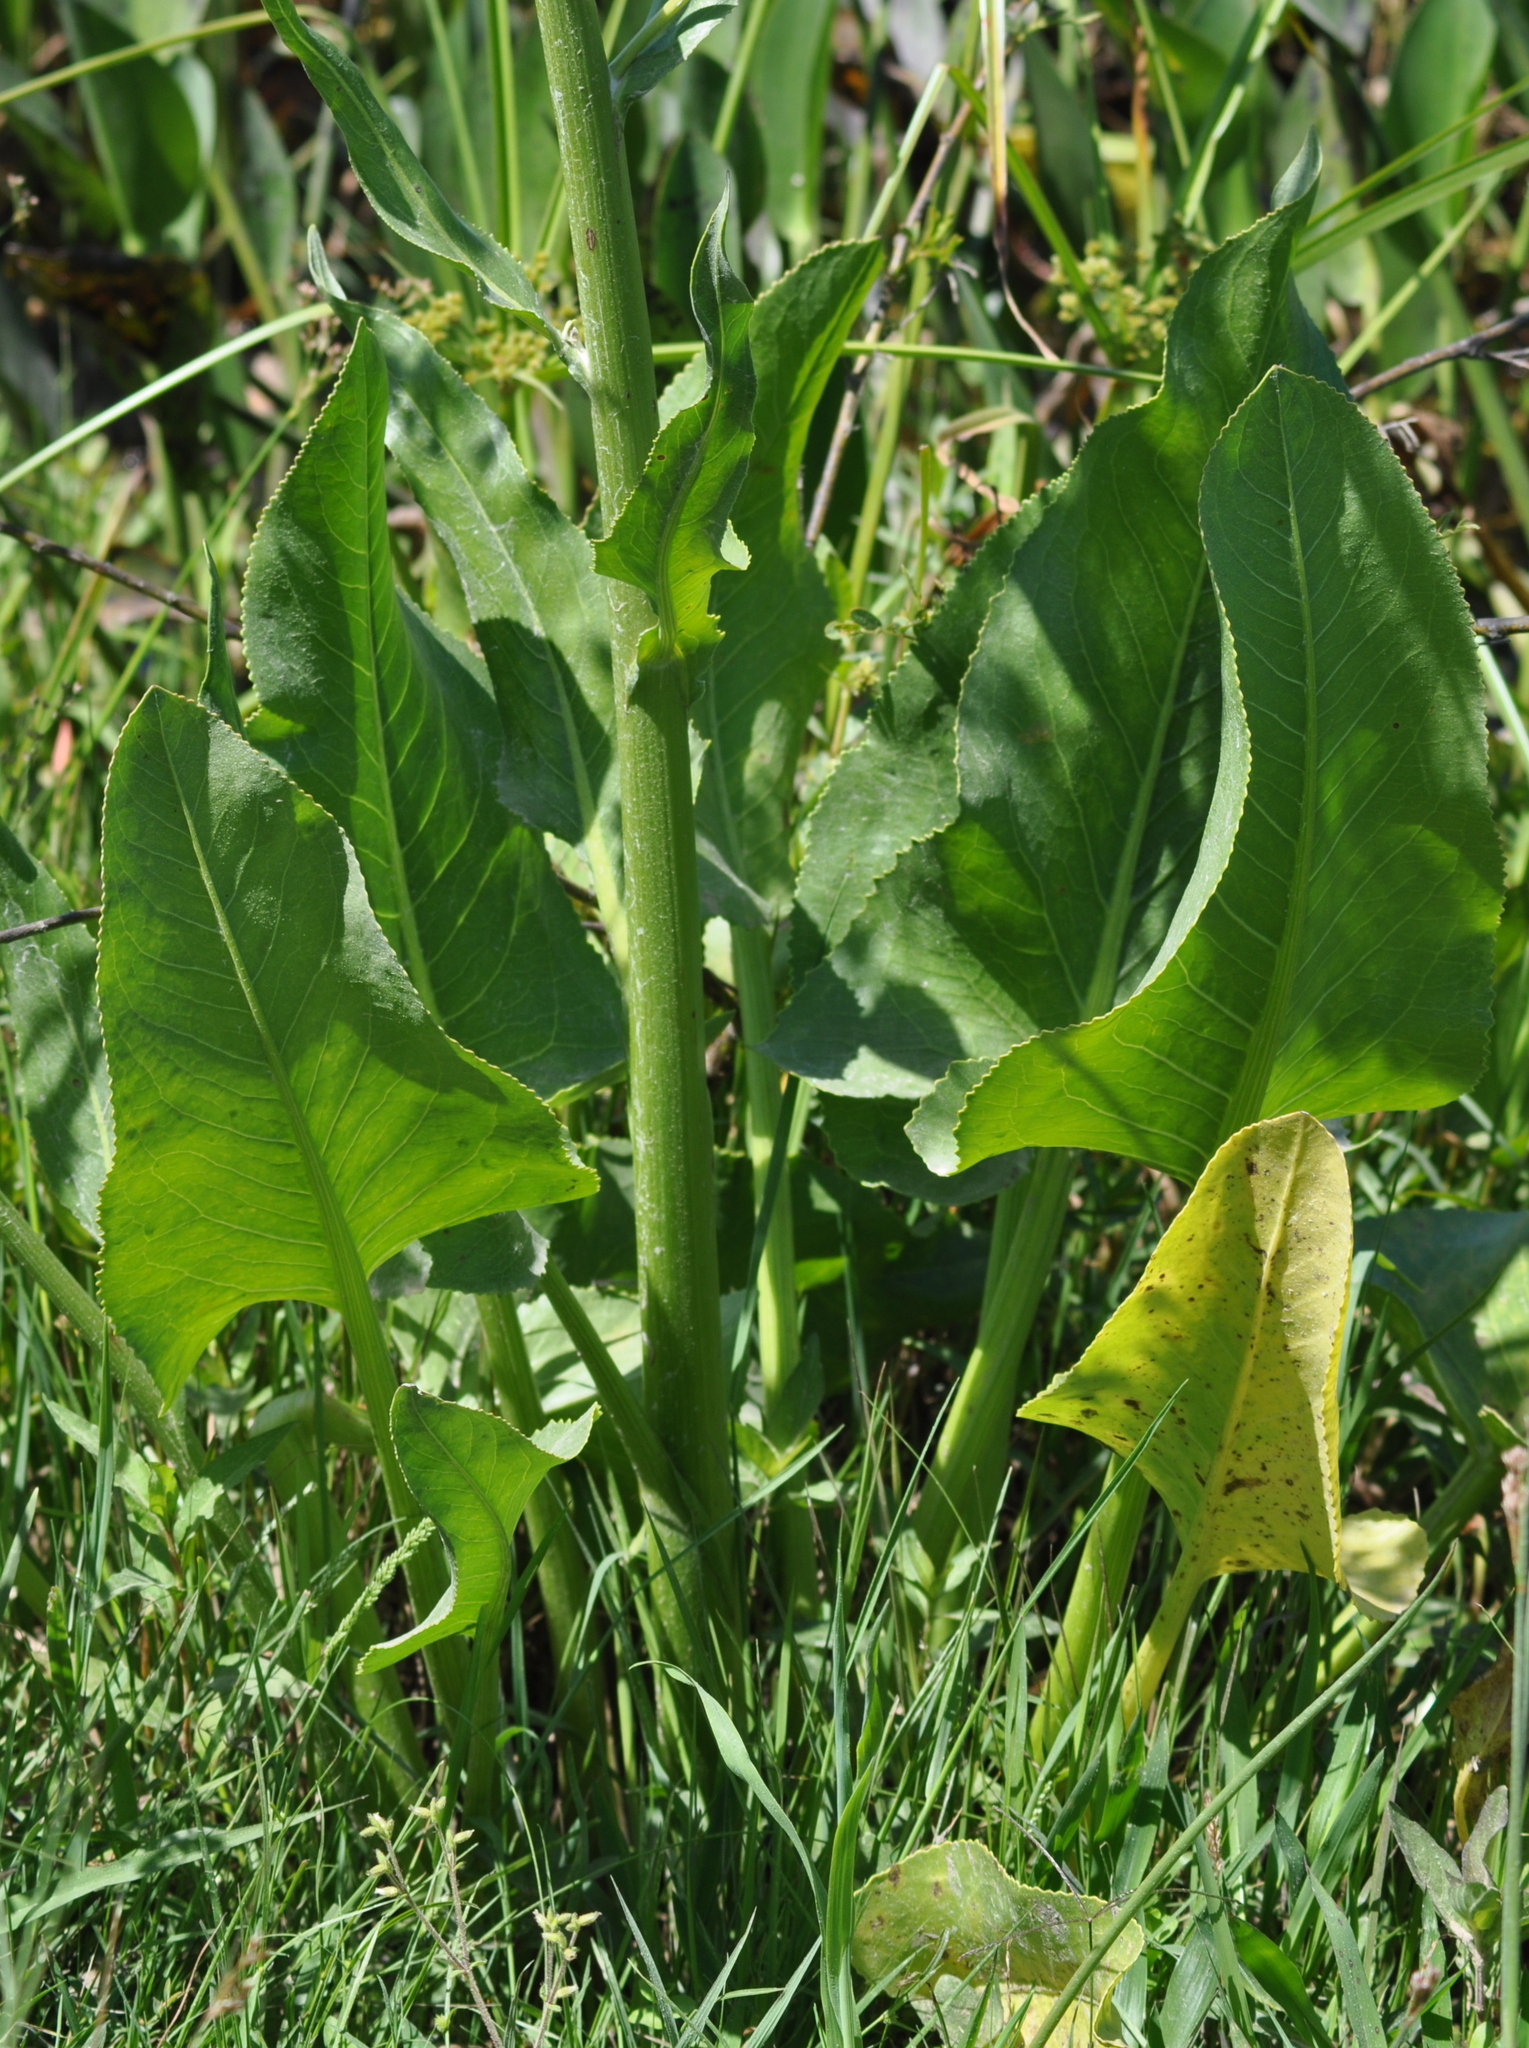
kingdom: Plantae
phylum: Tracheophyta
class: Magnoliopsida
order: Asterales
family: Asteraceae
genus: Senecio
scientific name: Senecio bonariensis
